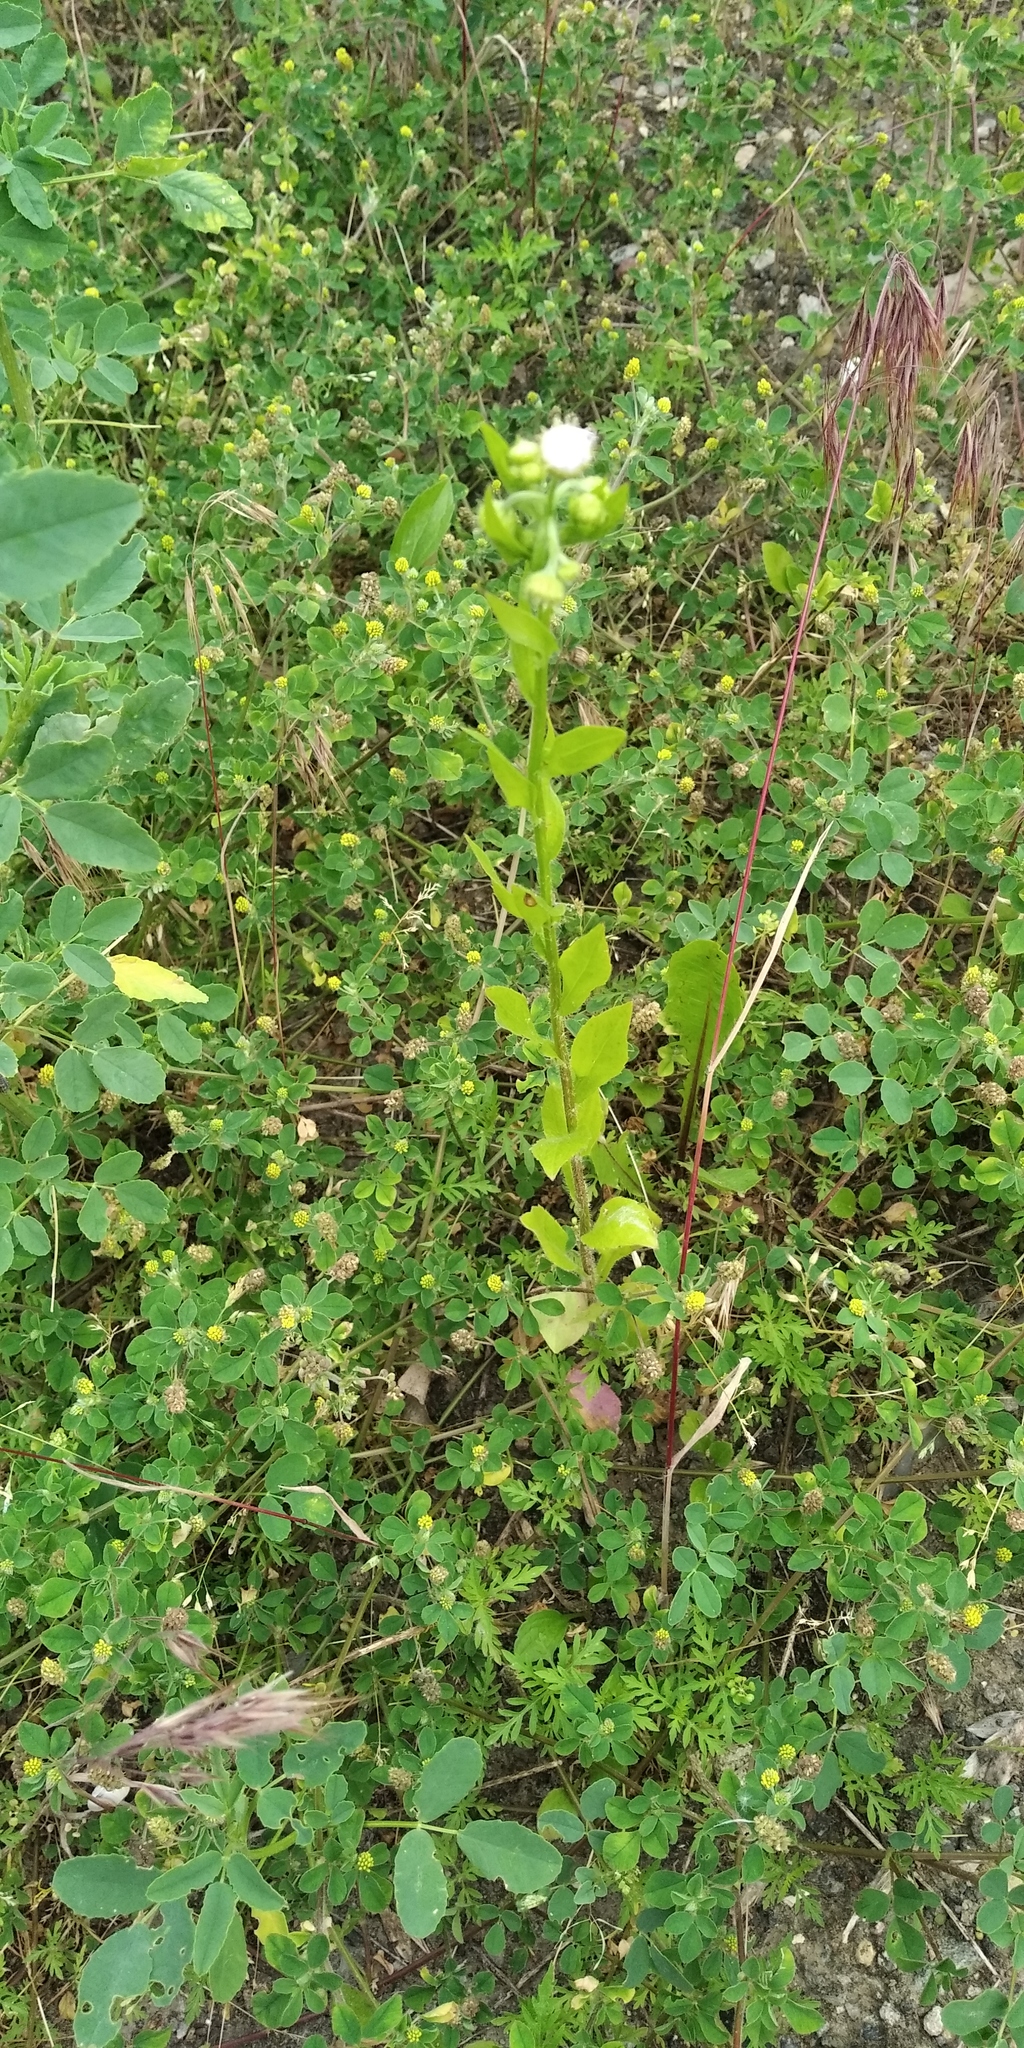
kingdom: Plantae
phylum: Tracheophyta
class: Magnoliopsida
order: Asterales
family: Asteraceae
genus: Erigeron
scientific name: Erigeron annuus
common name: Tall fleabane
